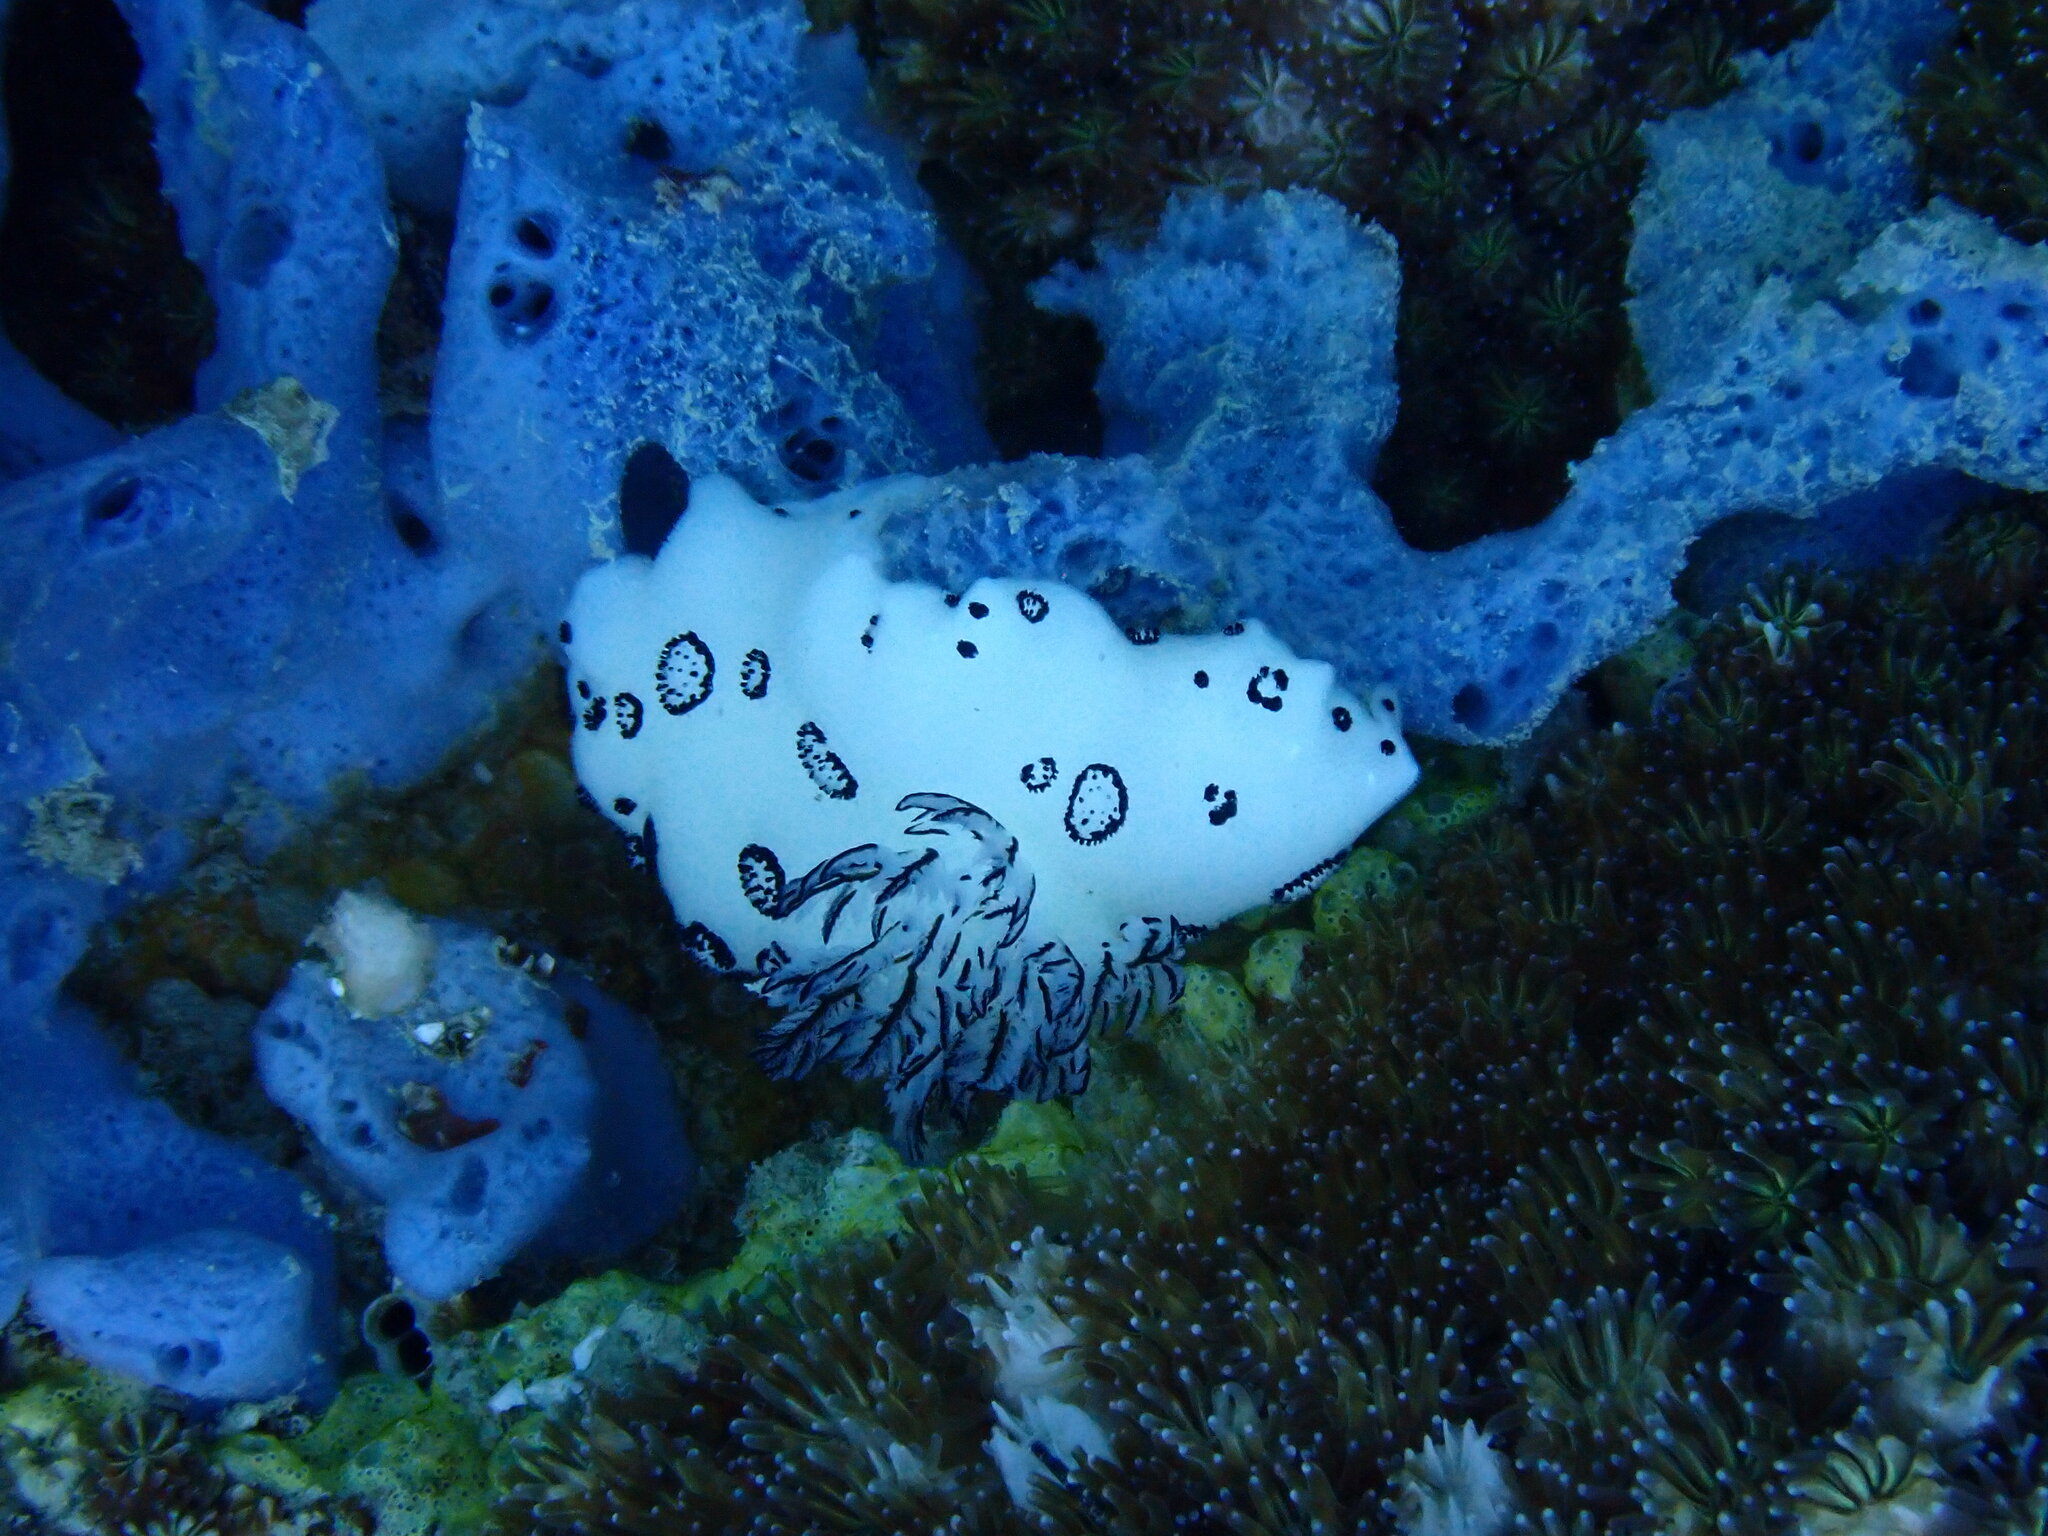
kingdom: Animalia
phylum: Mollusca
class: Gastropoda
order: Nudibranchia
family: Discodorididae
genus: Jorunna
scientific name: Jorunna funebris
